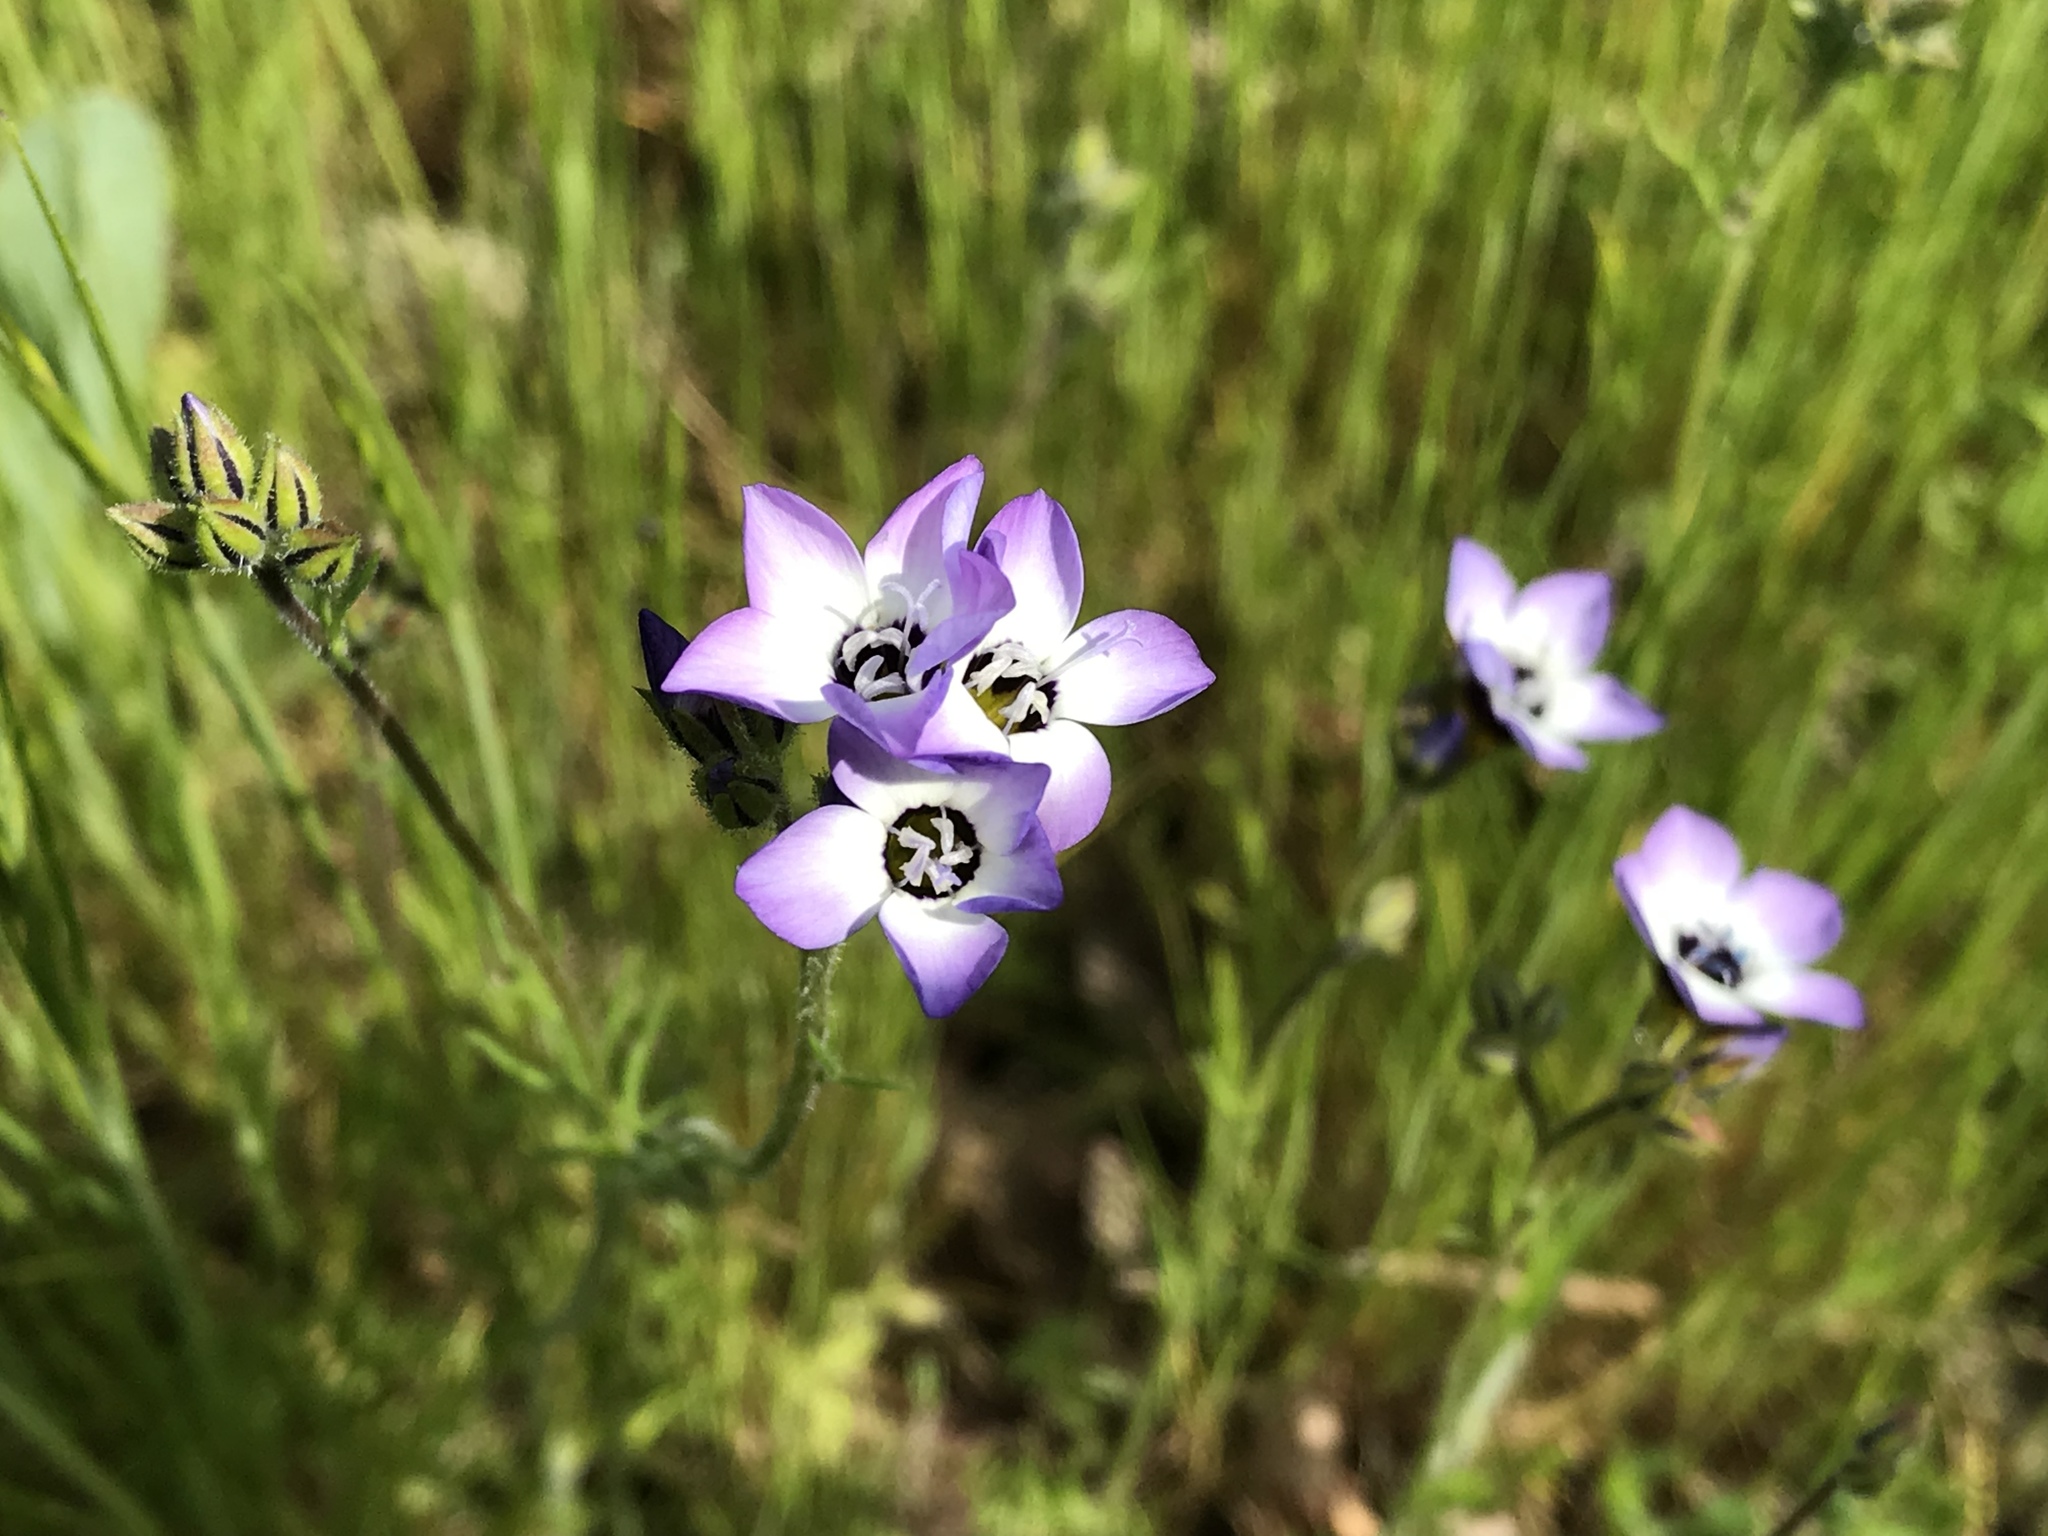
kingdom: Plantae
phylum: Tracheophyta
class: Magnoliopsida
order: Ericales
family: Polemoniaceae
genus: Gilia
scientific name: Gilia tricolor
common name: Bird's-eyes
